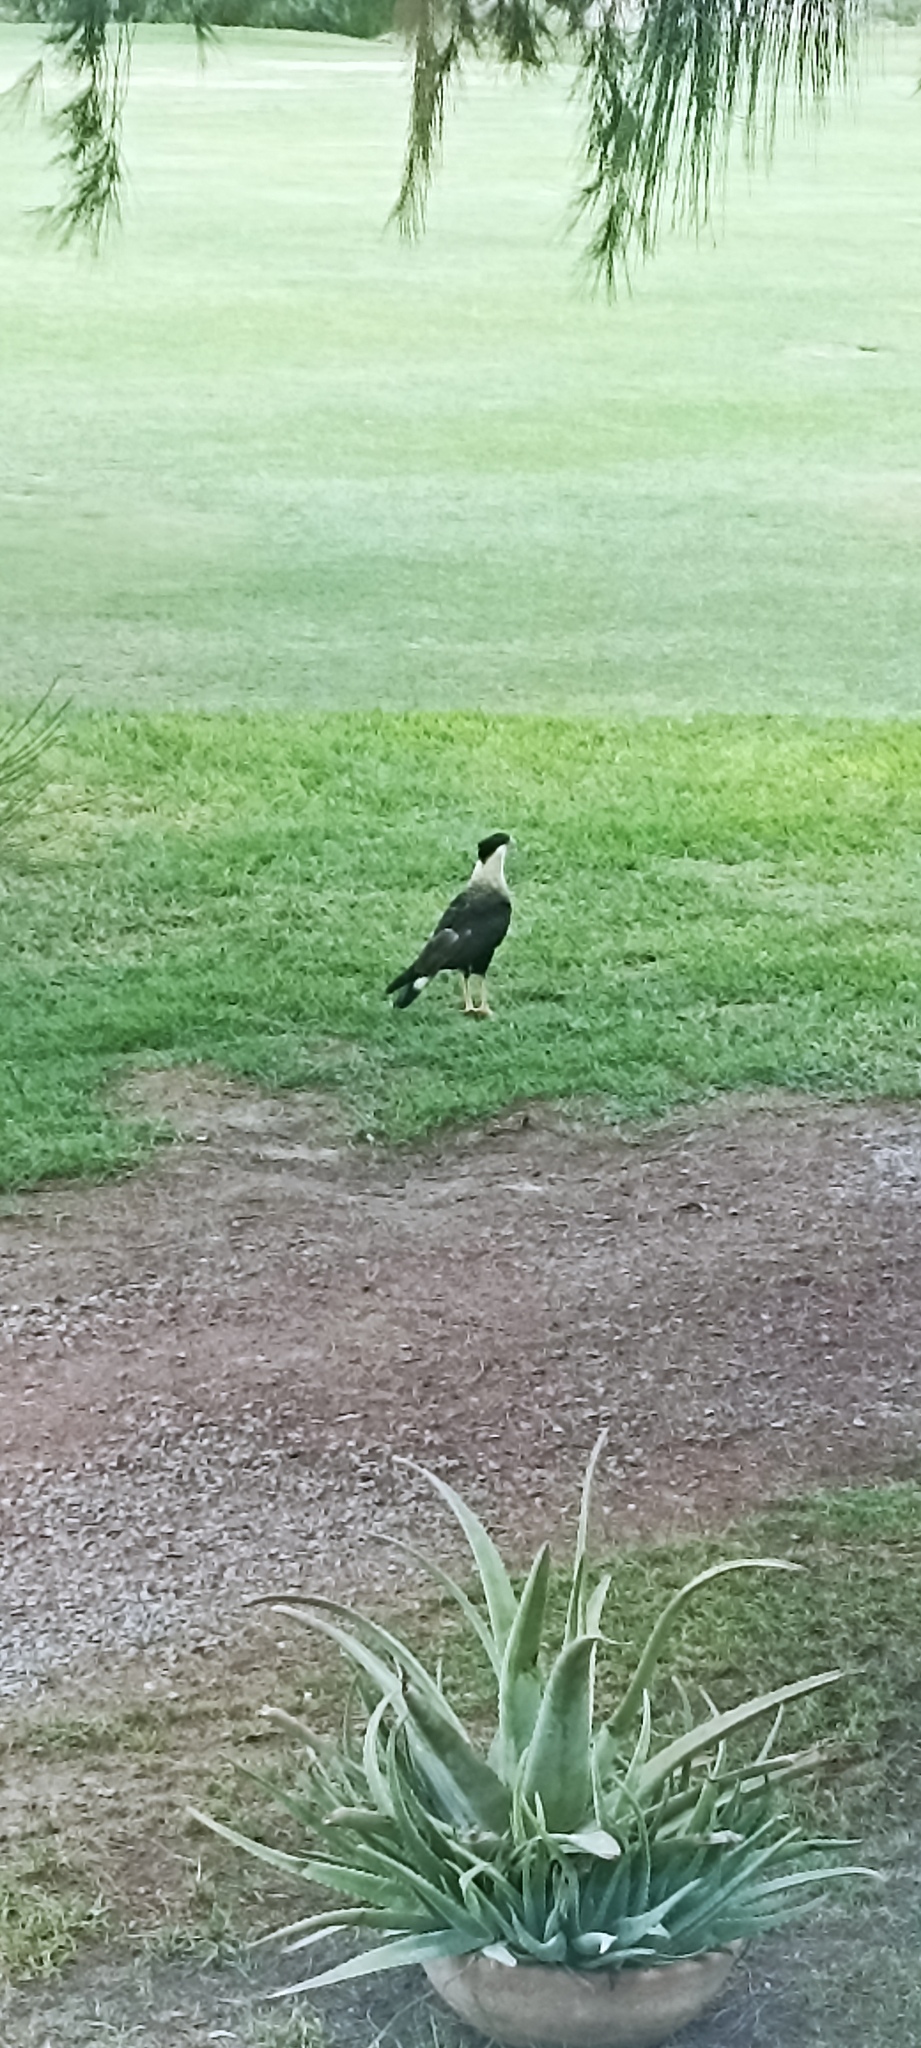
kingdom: Animalia
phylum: Chordata
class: Aves
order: Falconiformes
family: Falconidae
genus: Caracara
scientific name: Caracara plancus
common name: Southern caracara
